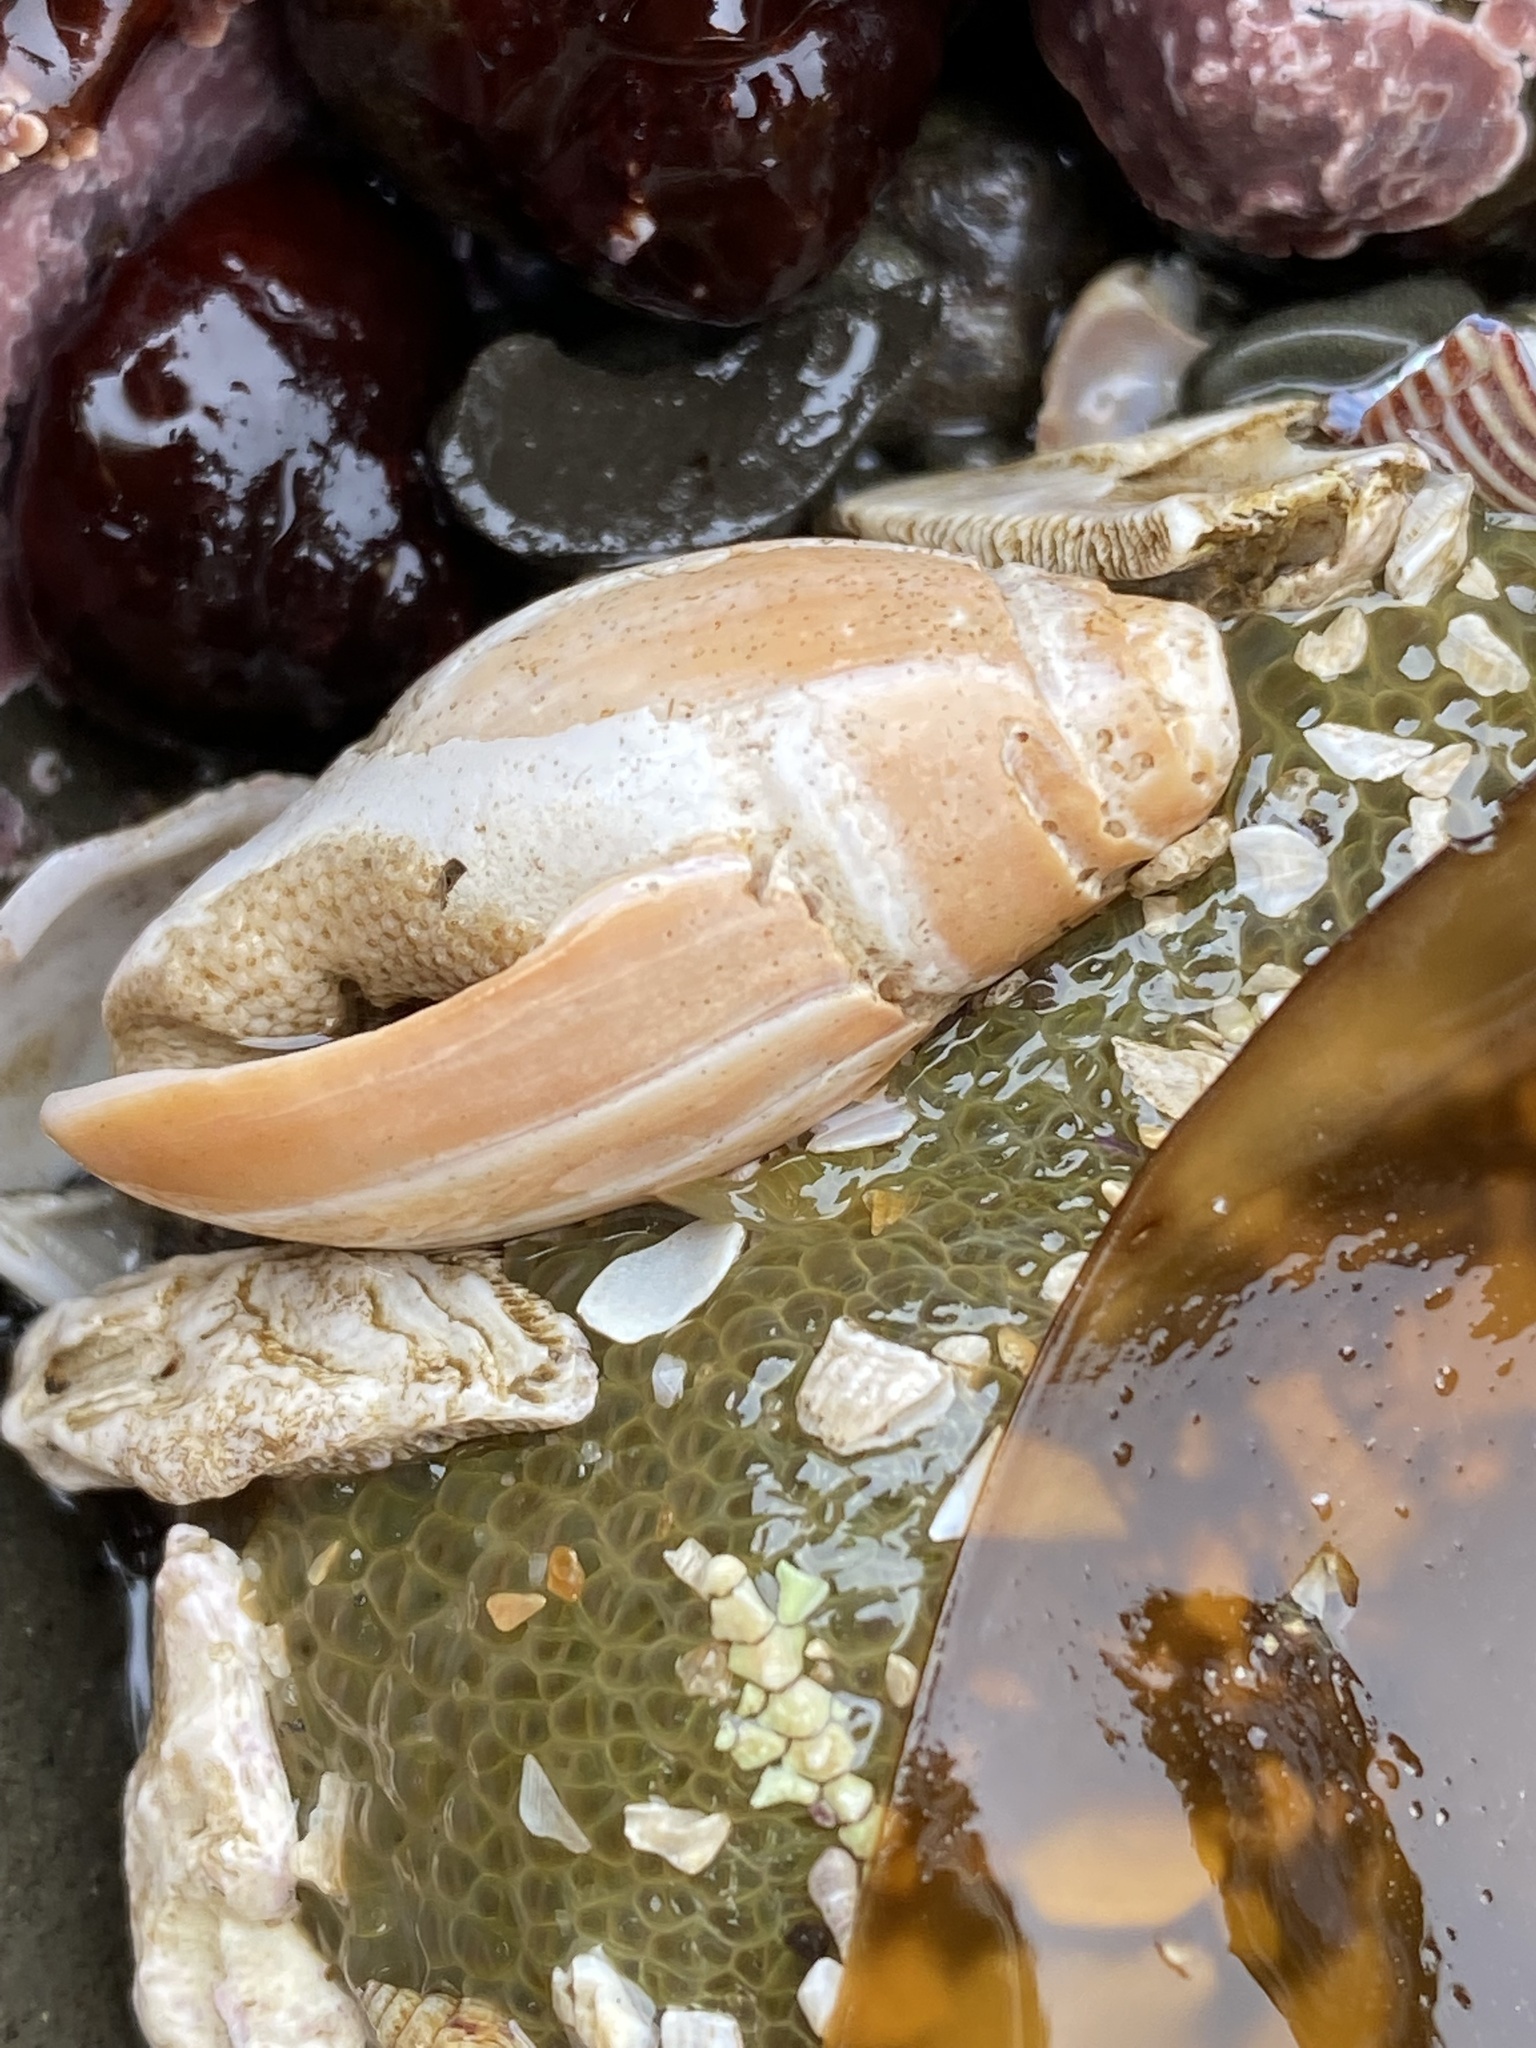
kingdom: Animalia
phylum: Mollusca
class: Gastropoda
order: Neogastropoda
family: Olividae
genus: Callianax
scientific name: Callianax biplicata
